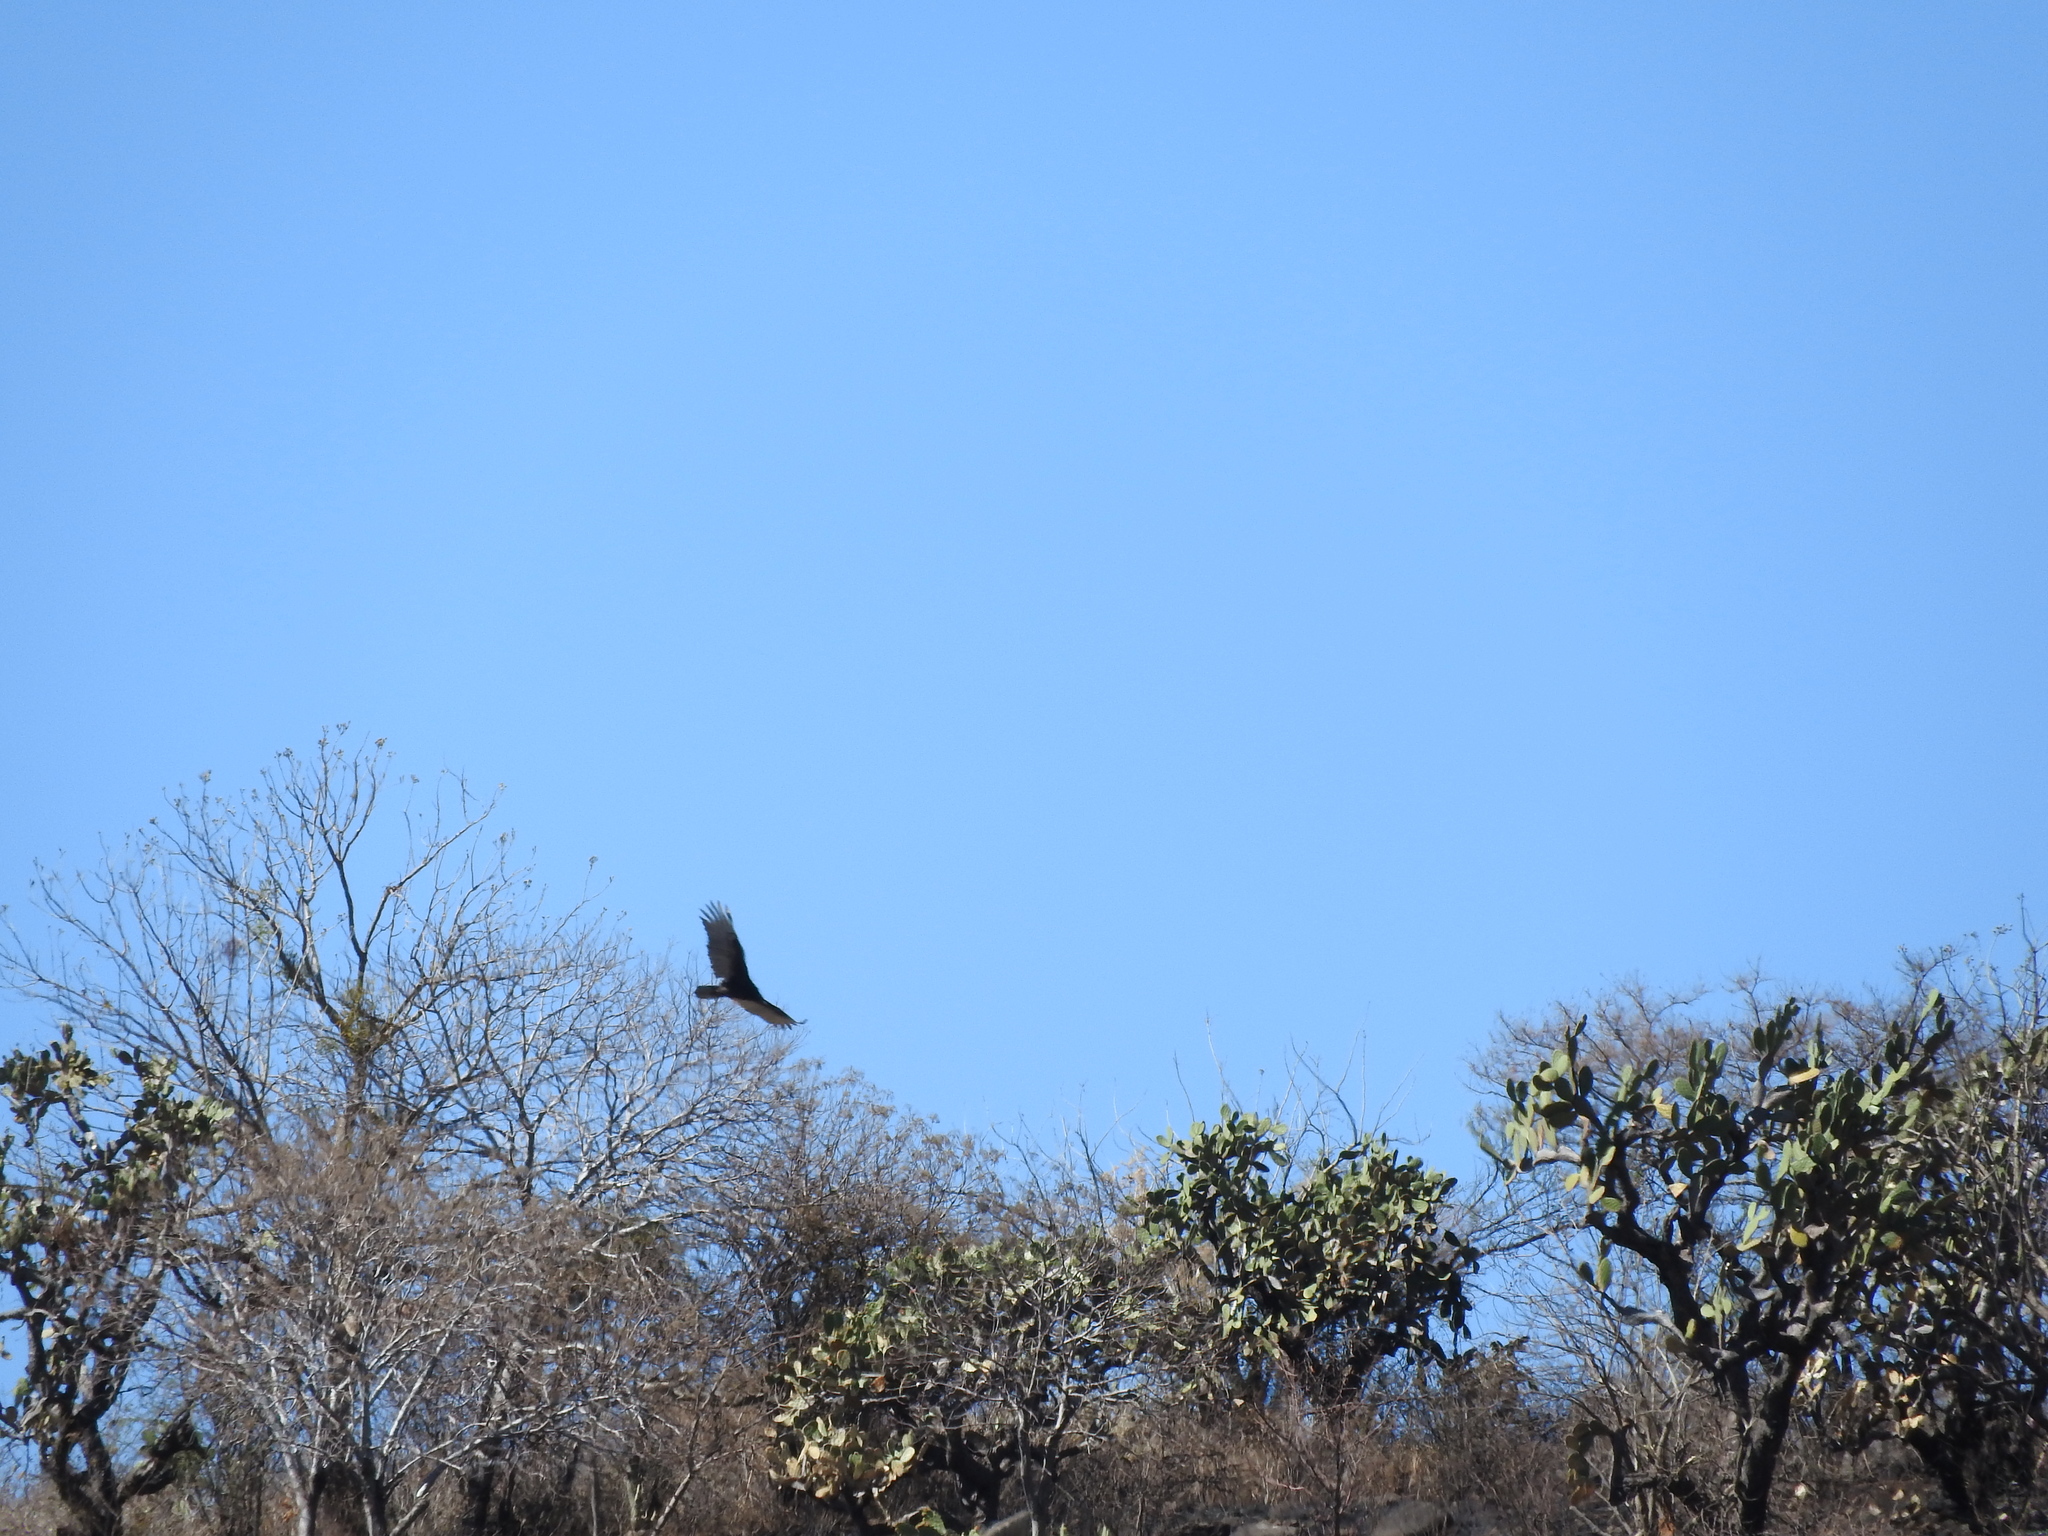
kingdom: Animalia
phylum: Chordata
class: Aves
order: Accipitriformes
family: Cathartidae
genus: Cathartes
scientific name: Cathartes aura
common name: Turkey vulture
